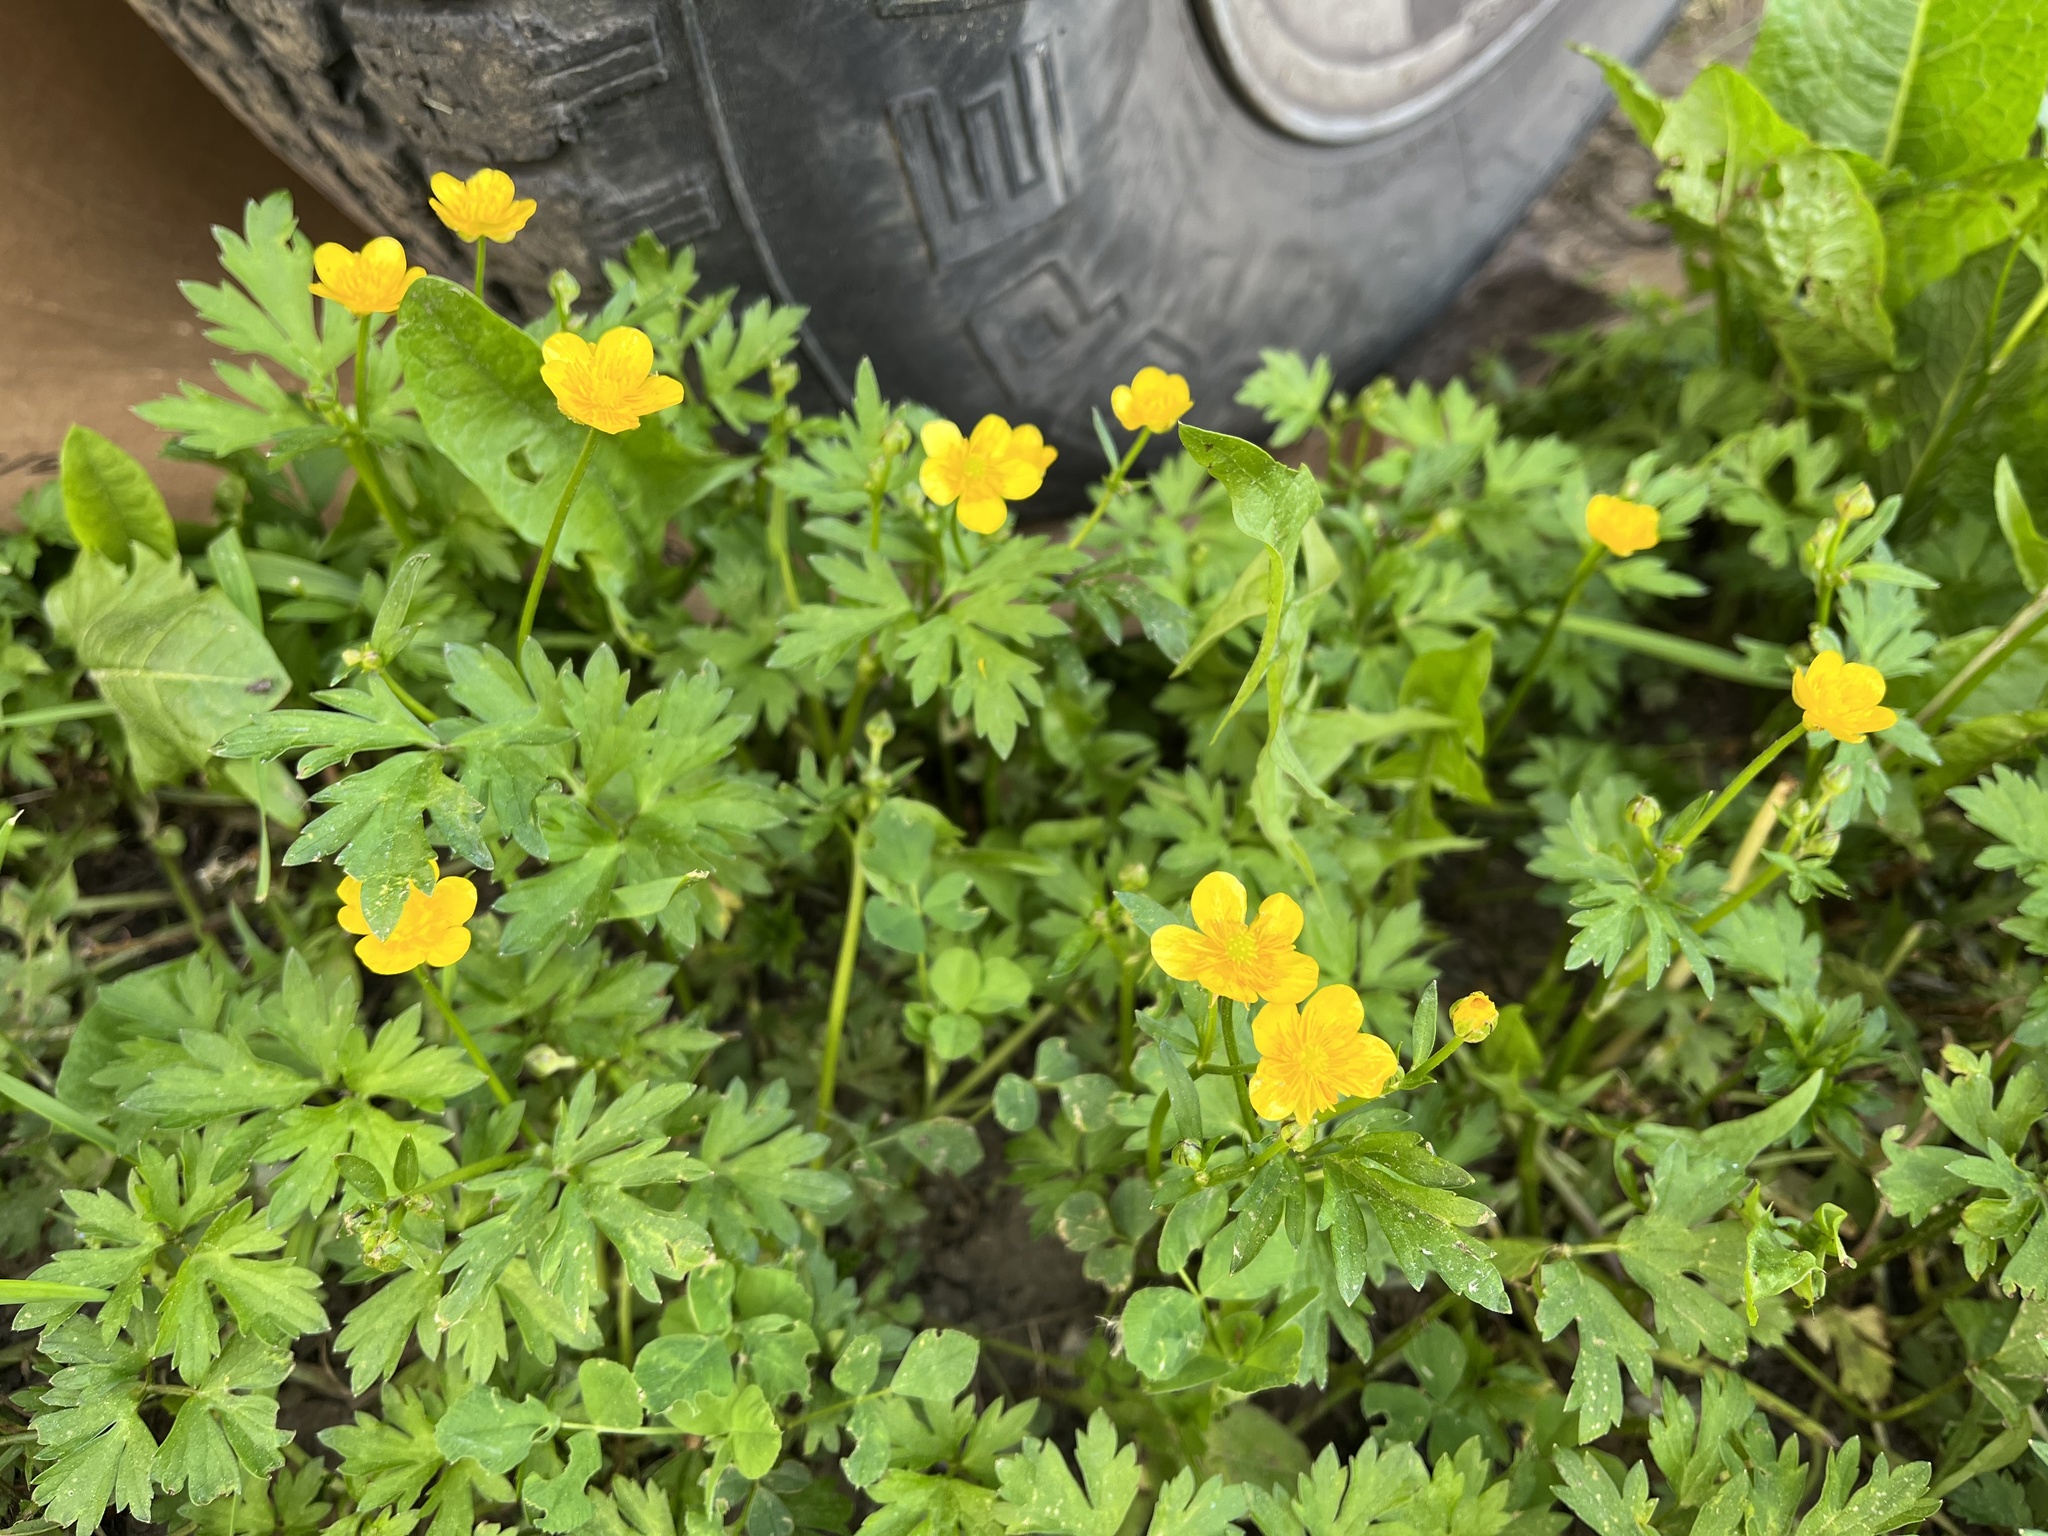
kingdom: Plantae
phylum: Tracheophyta
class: Magnoliopsida
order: Ranunculales
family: Ranunculaceae
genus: Ranunculus
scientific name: Ranunculus repens
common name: Creeping buttercup
